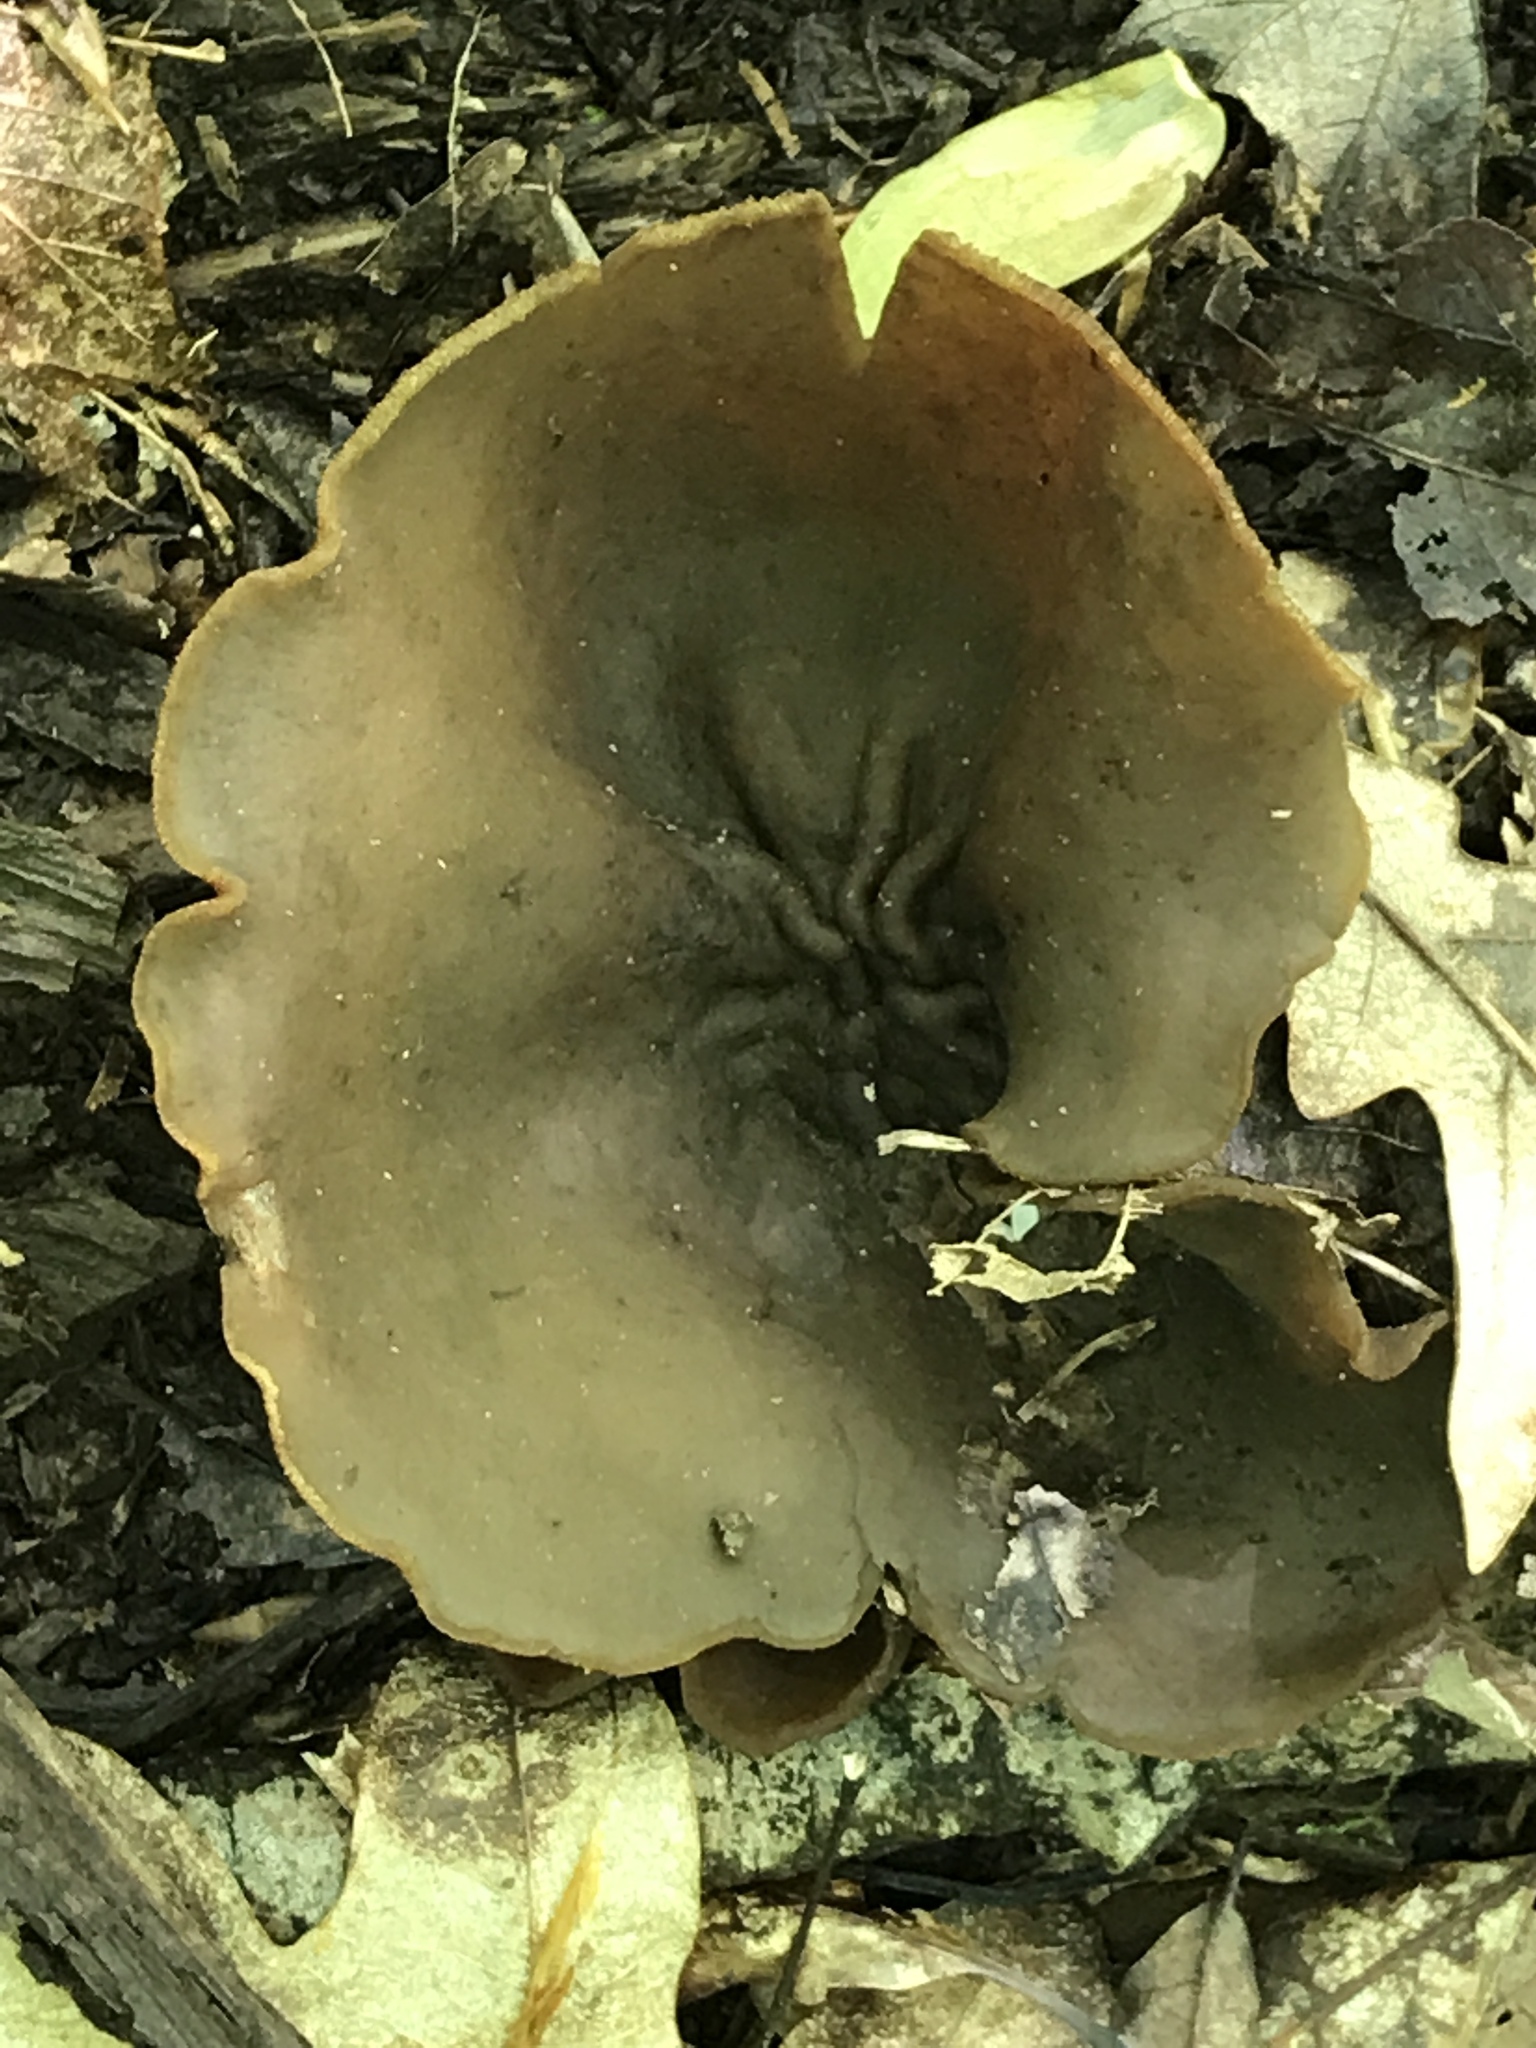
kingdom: Fungi
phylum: Ascomycota
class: Pezizomycetes
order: Pezizales
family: Pezizaceae
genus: Phylloscypha
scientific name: Phylloscypha phyllogena
